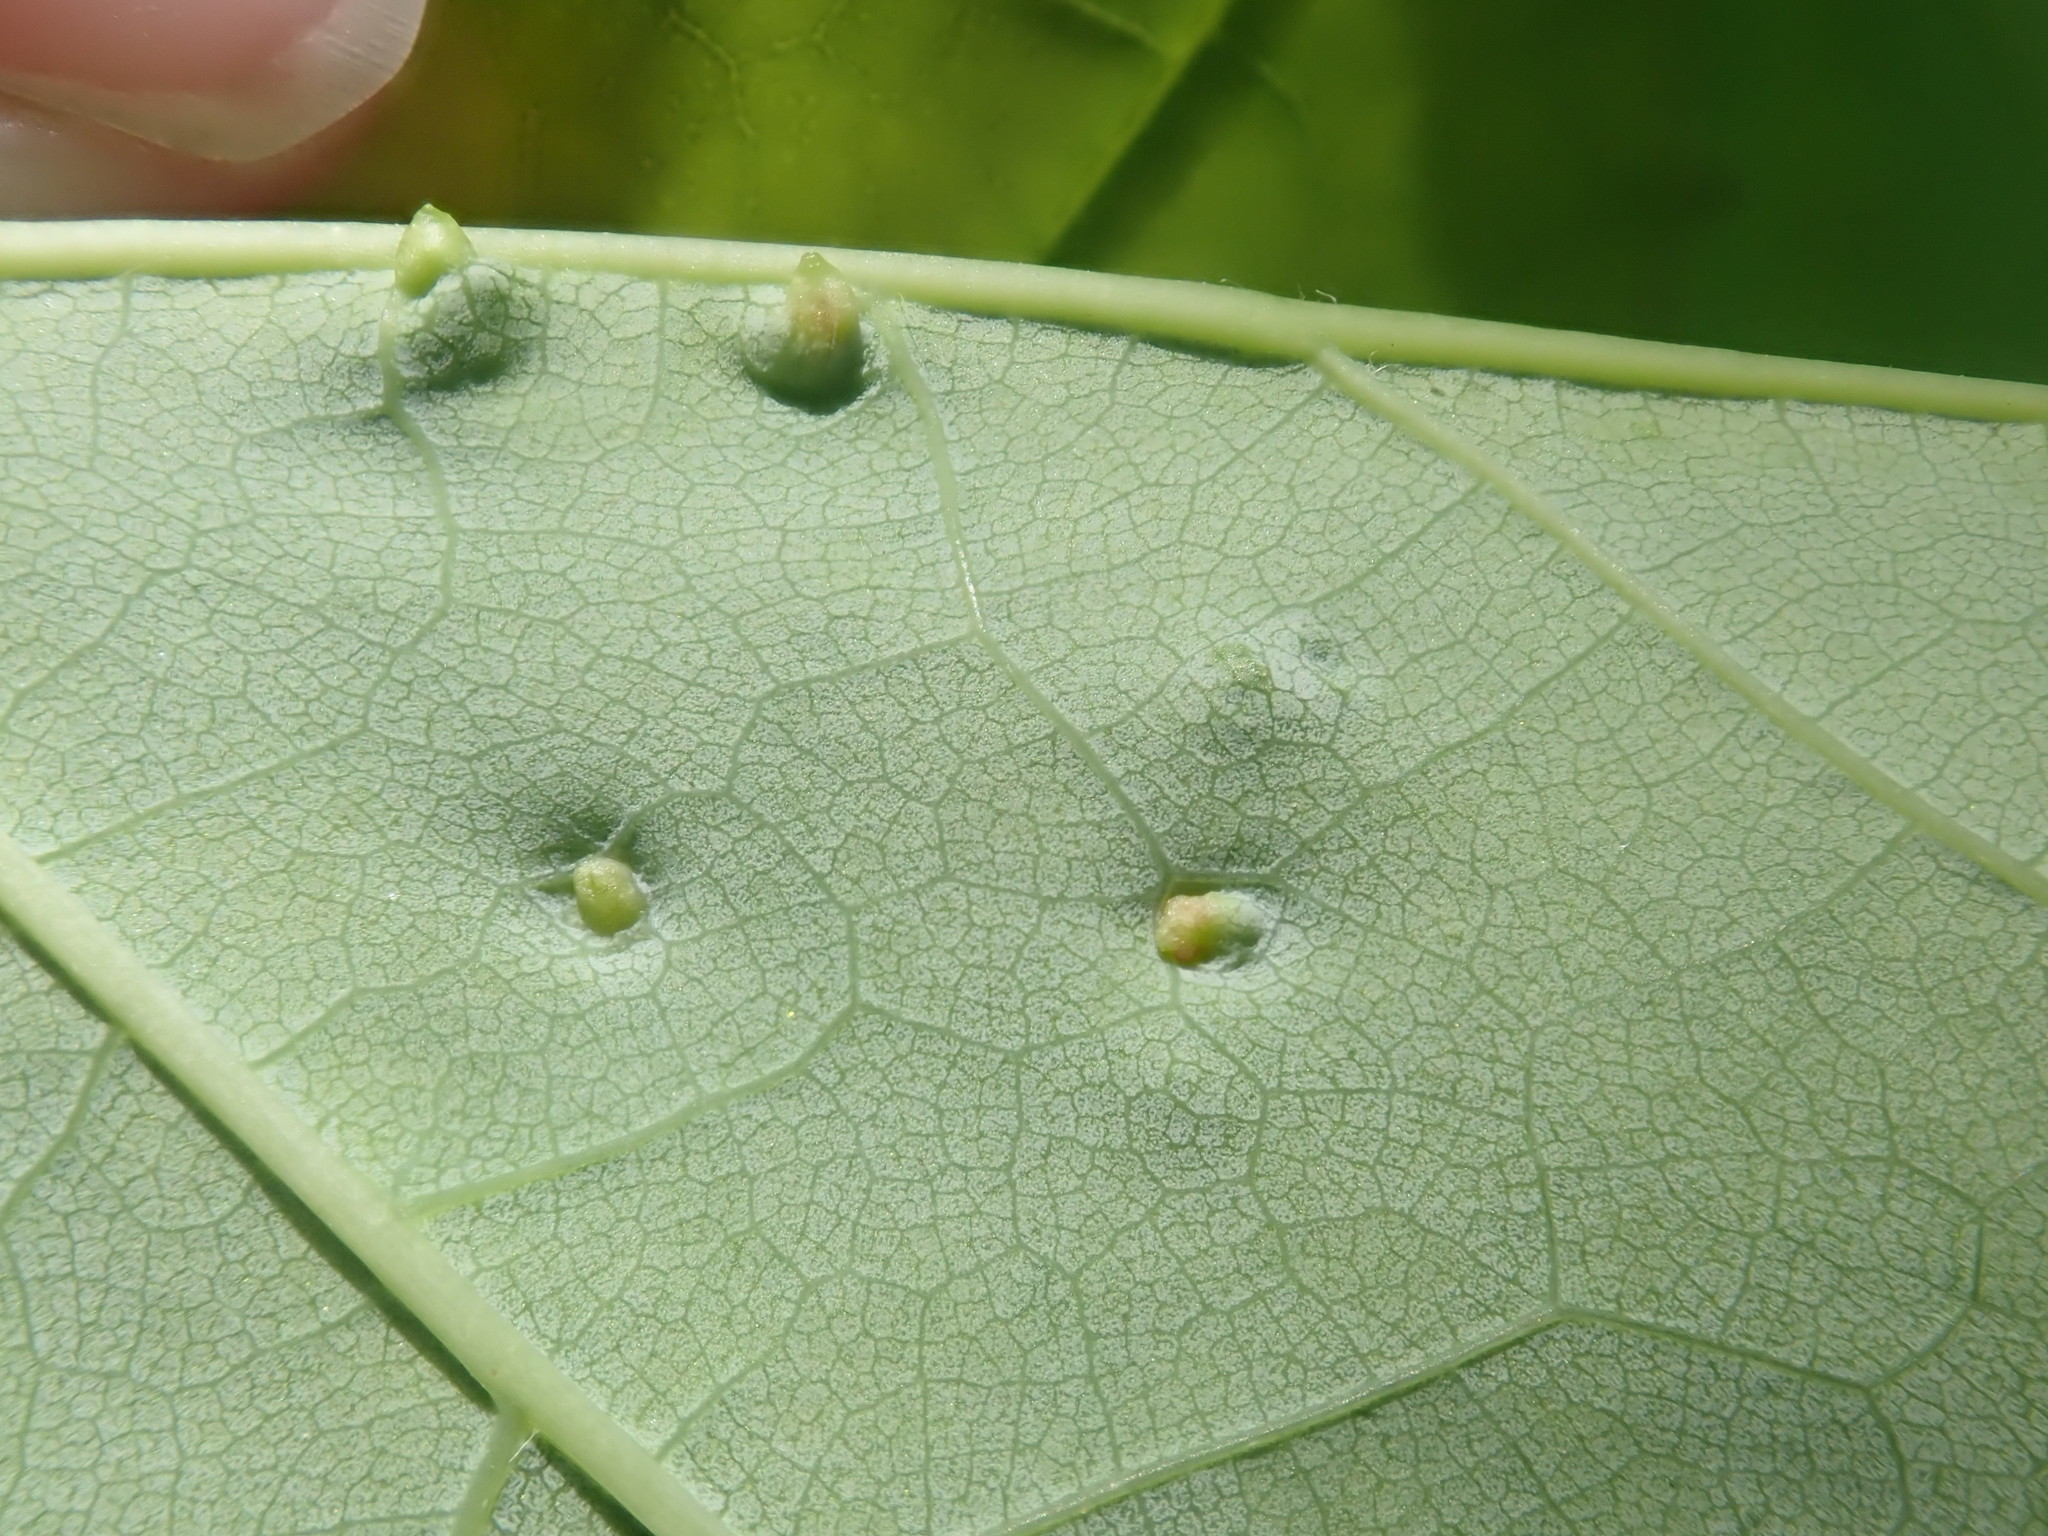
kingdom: Animalia
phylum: Arthropoda
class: Arachnida
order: Trombidiformes
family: Eriophyidae
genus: Vasates
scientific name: Vasates quadripedes
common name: Maple bladder gall mite
